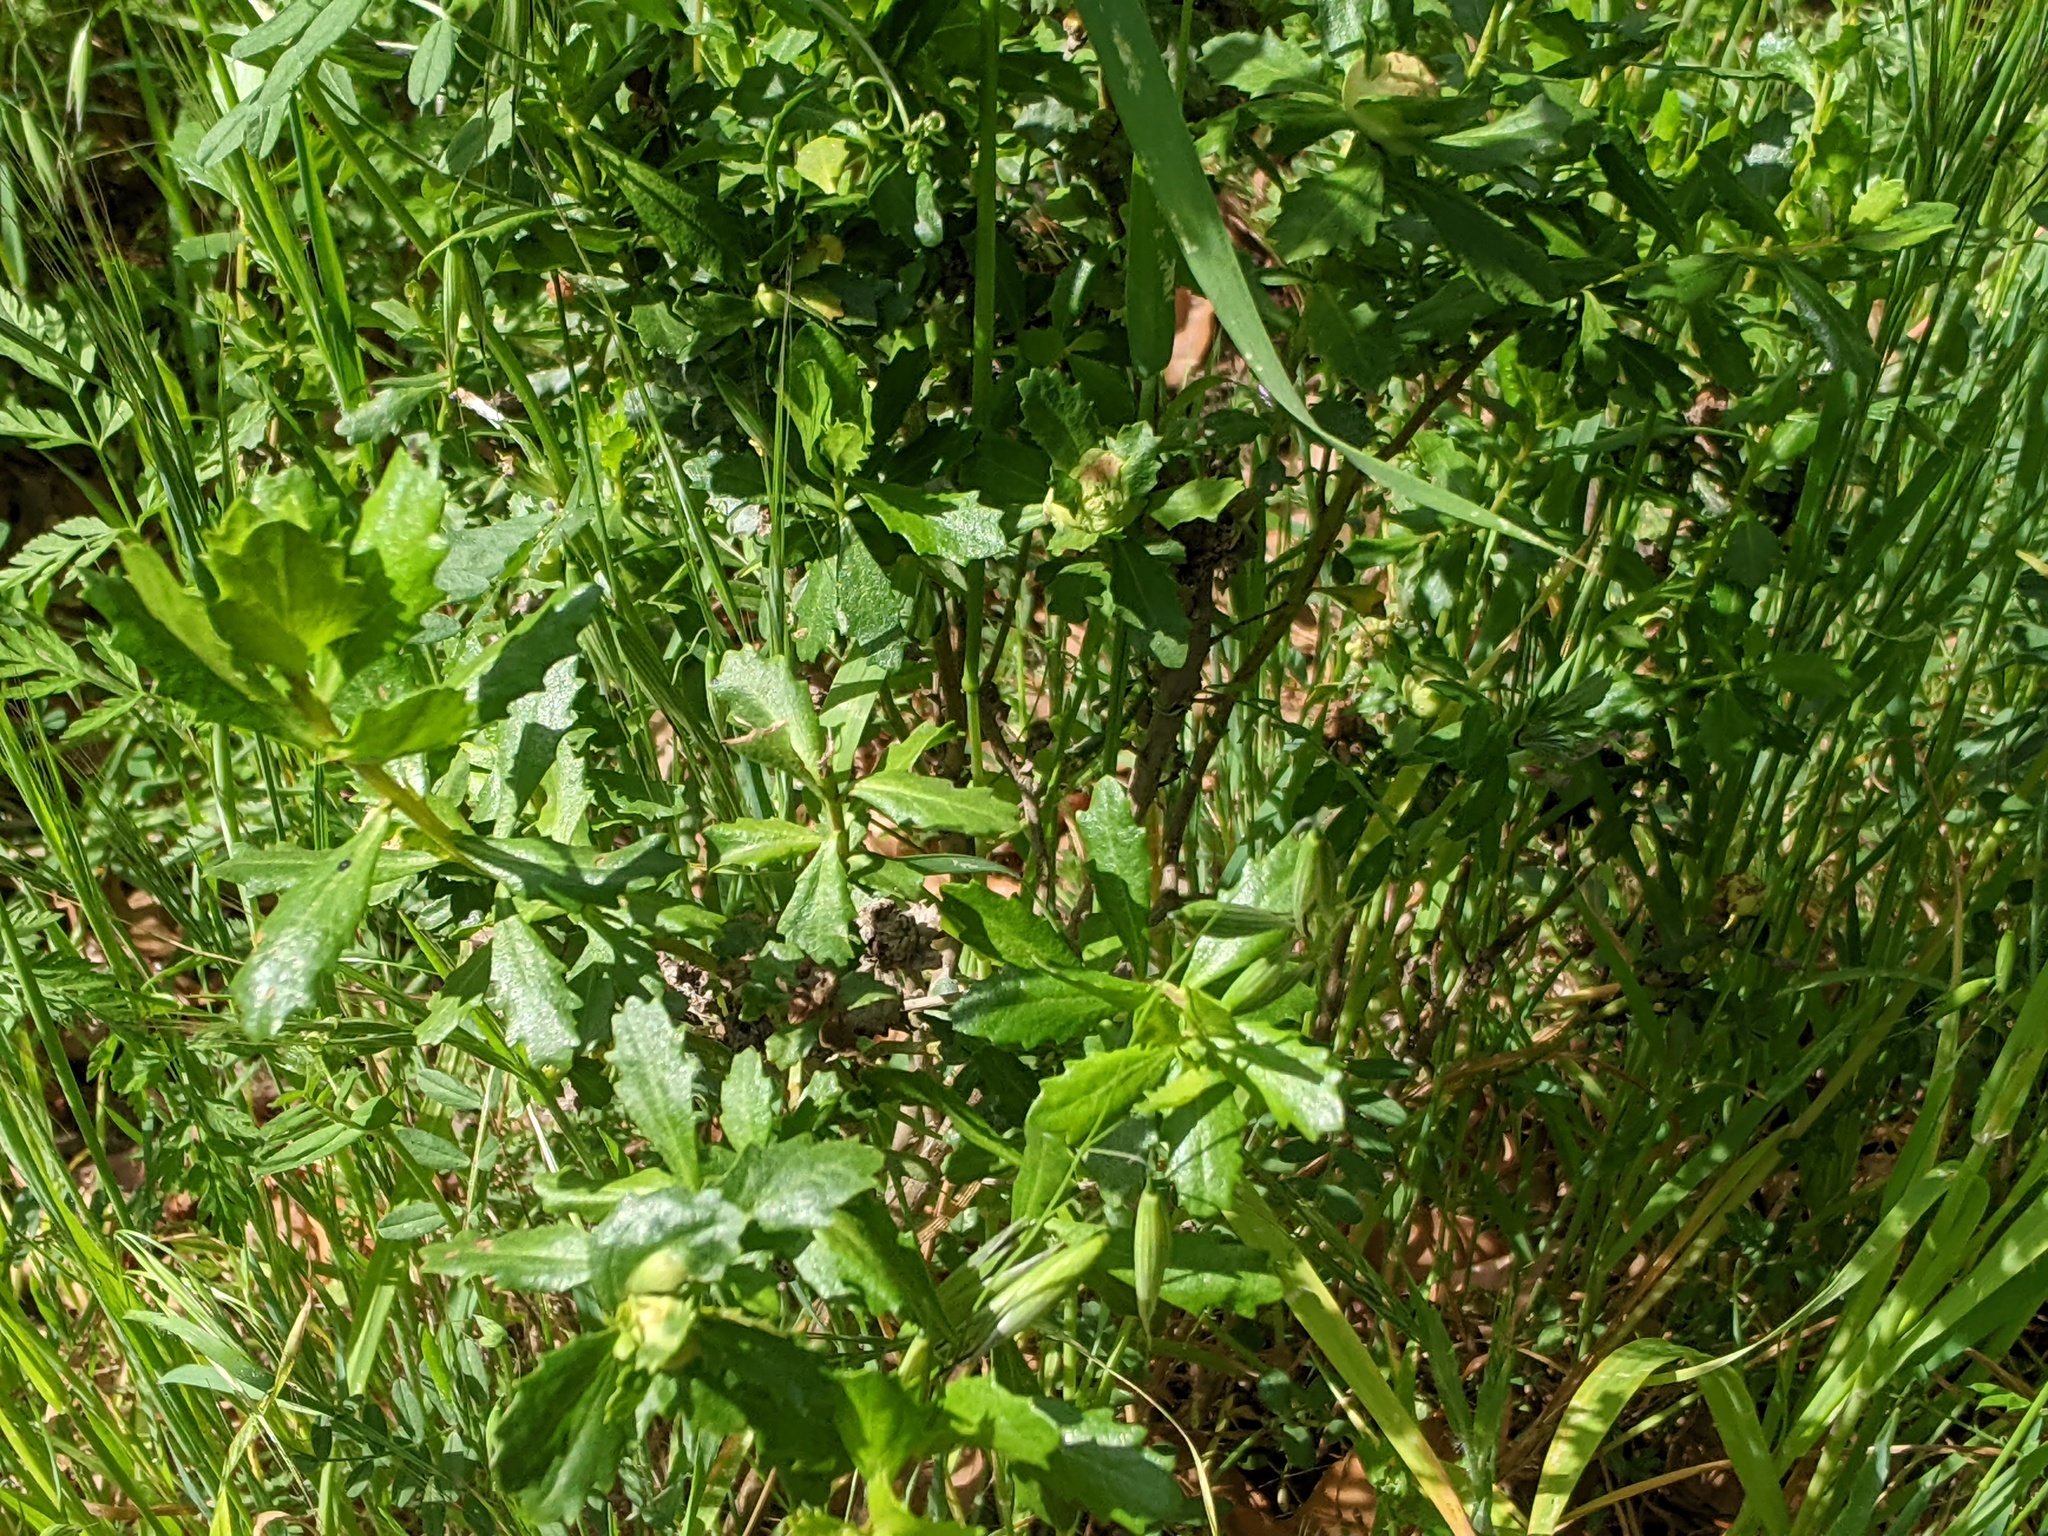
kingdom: Plantae
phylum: Tracheophyta
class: Magnoliopsida
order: Asterales
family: Asteraceae
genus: Baccharis
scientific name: Baccharis pilularis
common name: Coyotebrush
